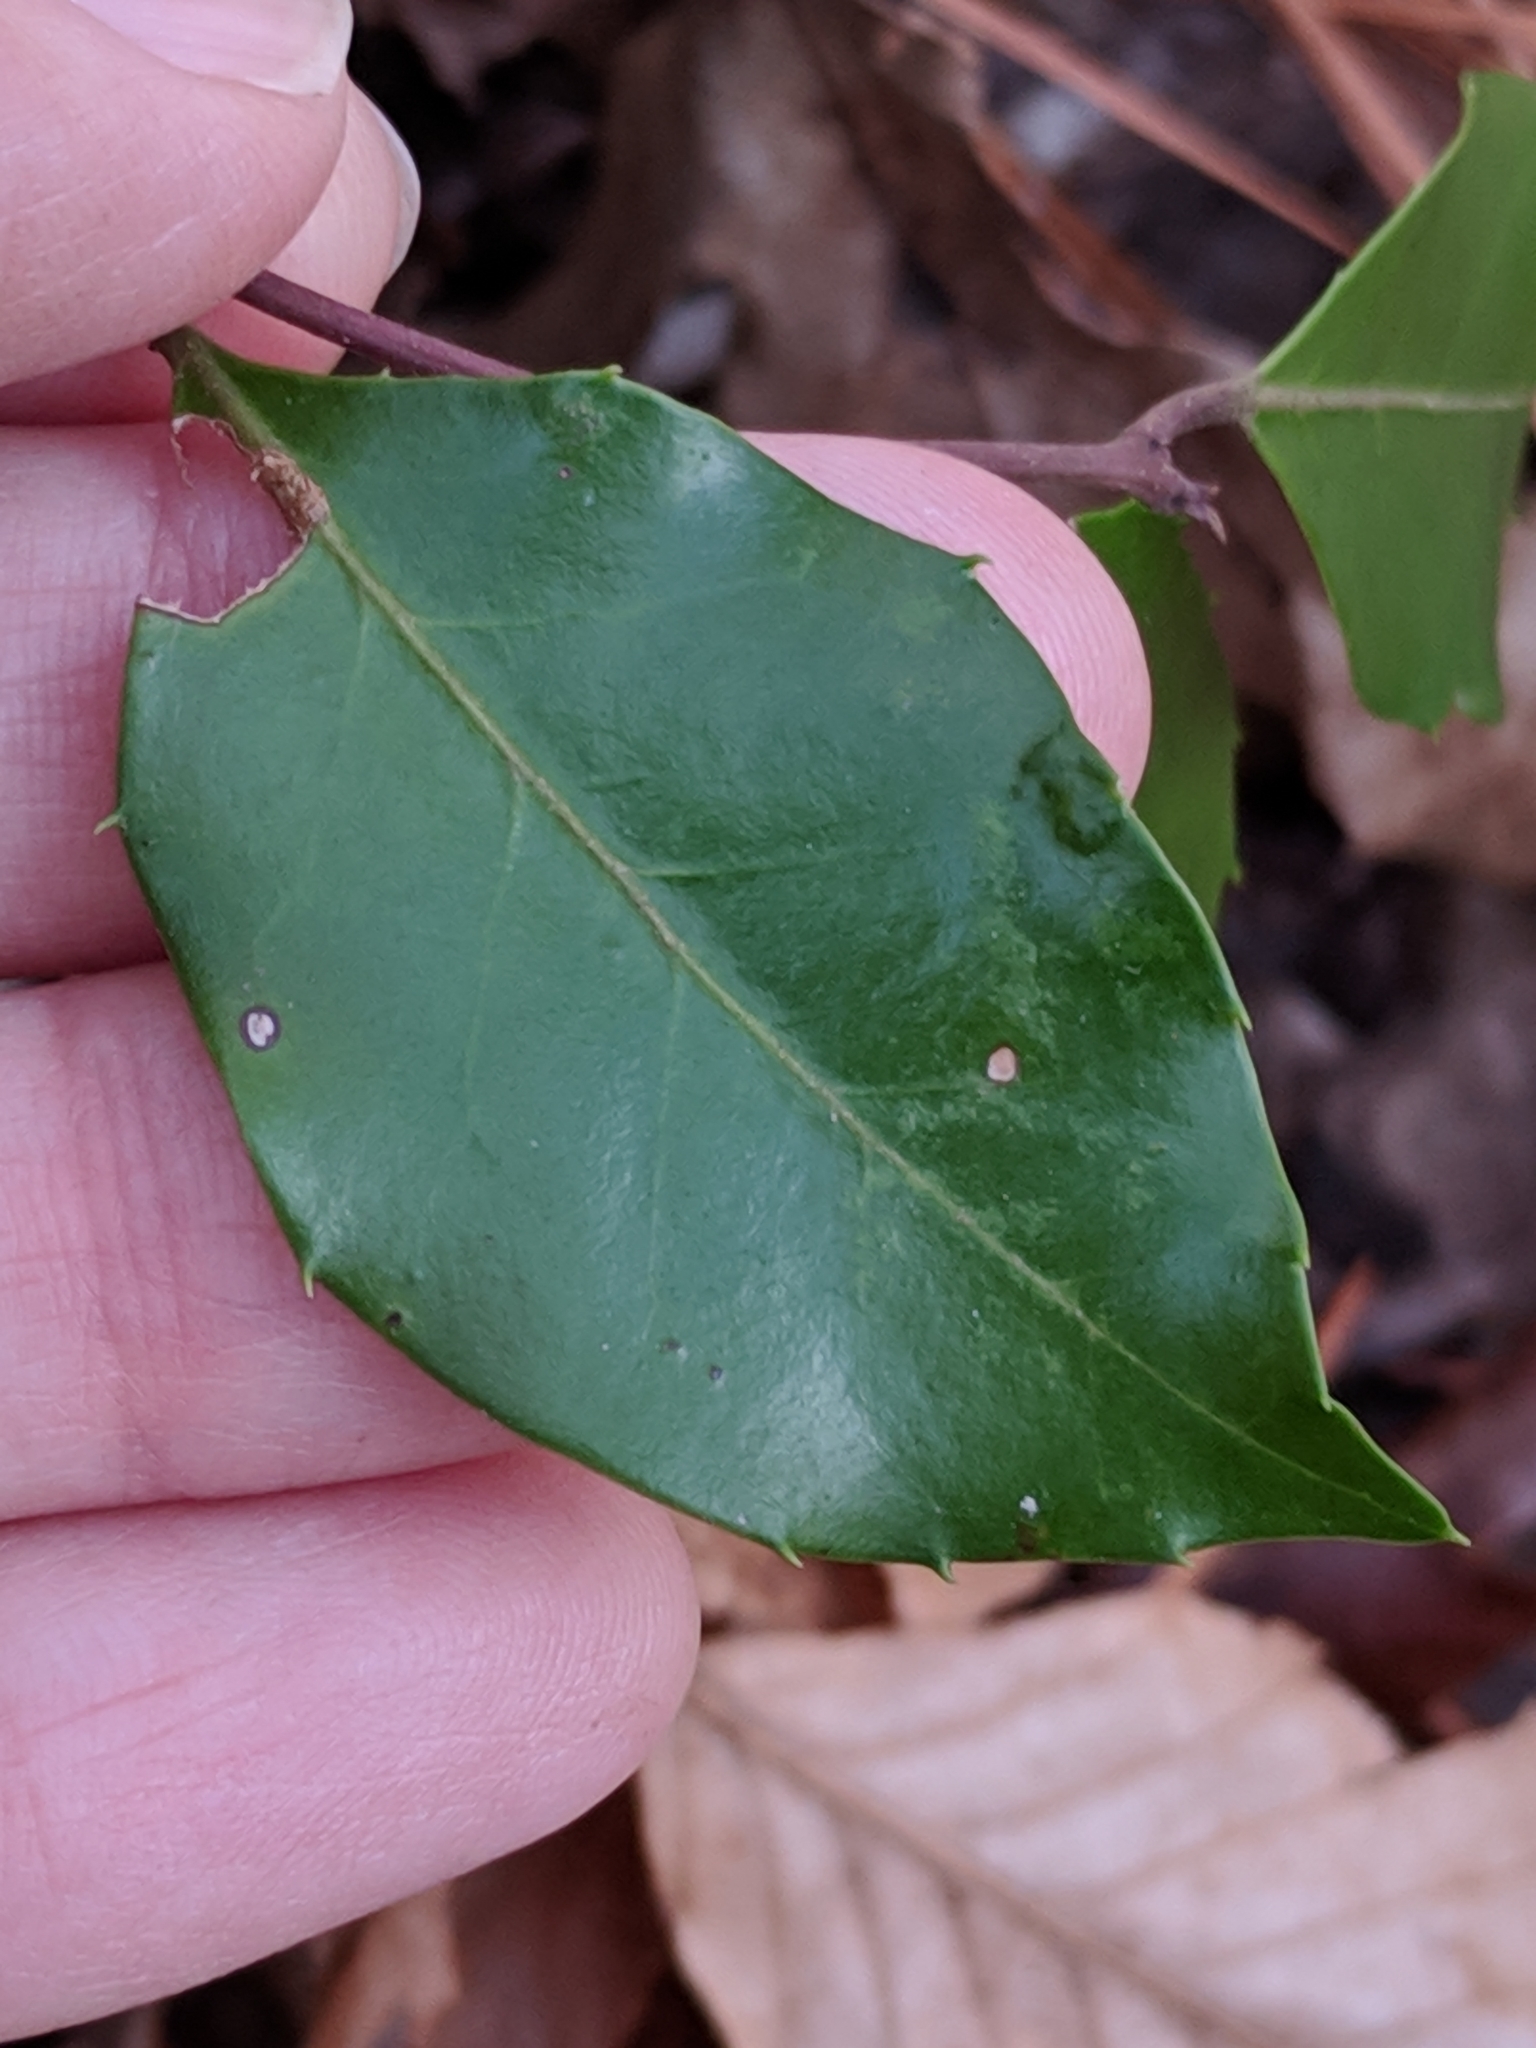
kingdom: Plantae
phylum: Tracheophyta
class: Magnoliopsida
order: Aquifoliales
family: Aquifoliaceae
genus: Ilex
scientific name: Ilex coriacea
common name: Sweet gallberry
